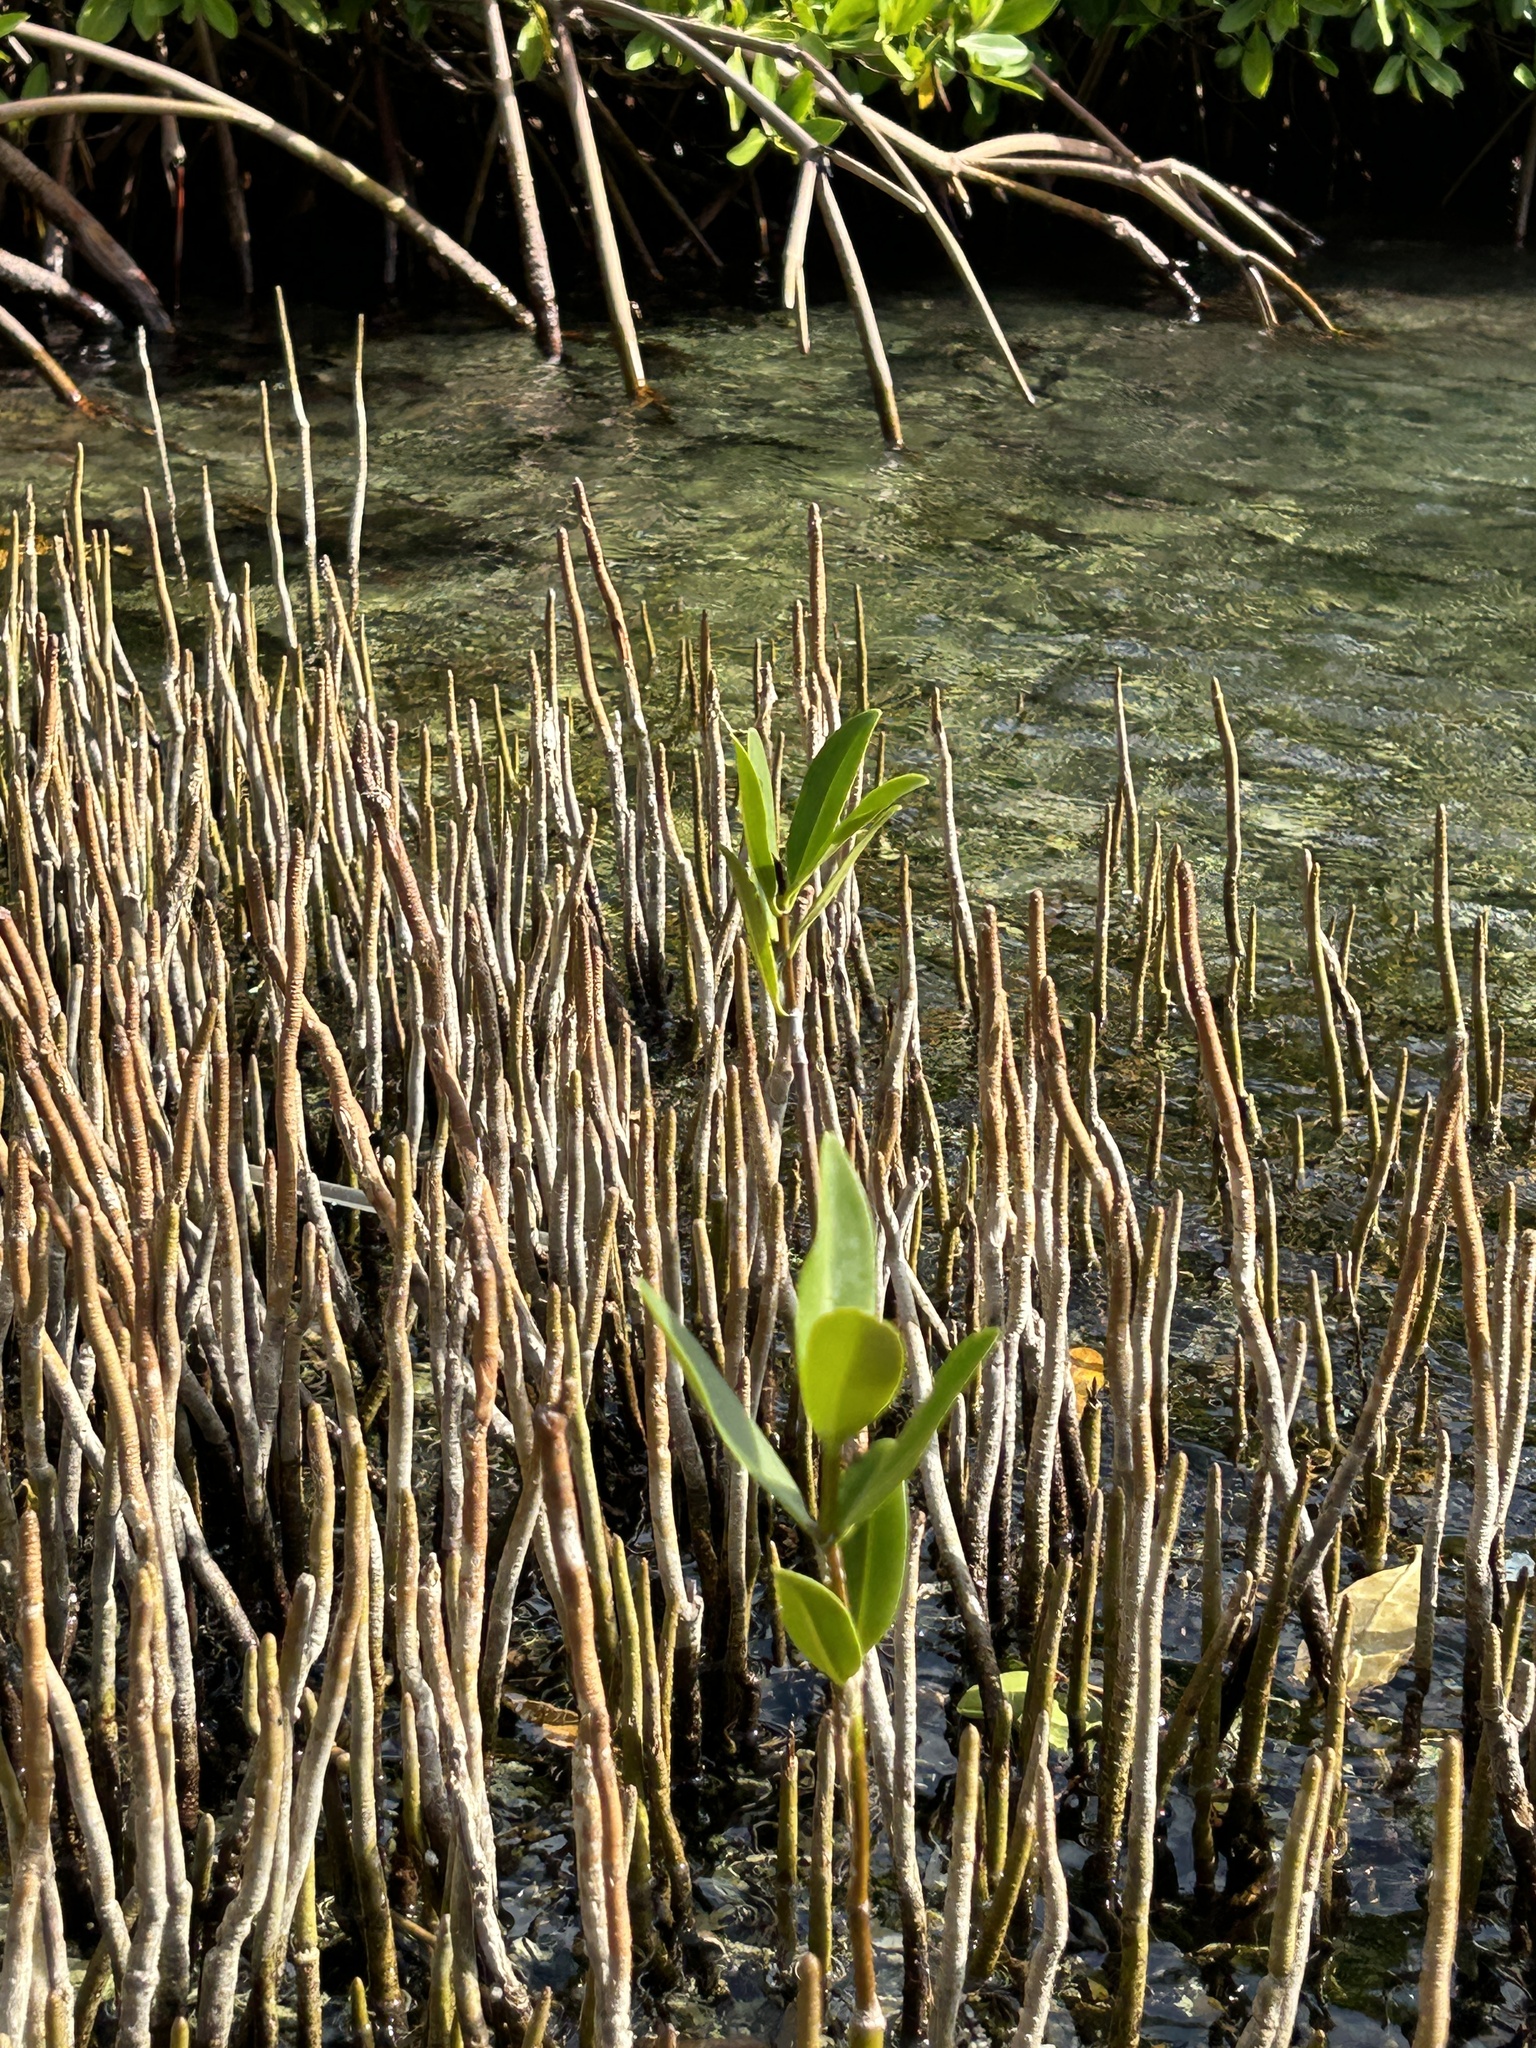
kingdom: Plantae
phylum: Tracheophyta
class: Magnoliopsida
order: Lamiales
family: Acanthaceae
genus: Avicennia
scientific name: Avicennia germinans
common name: Black mangrove
